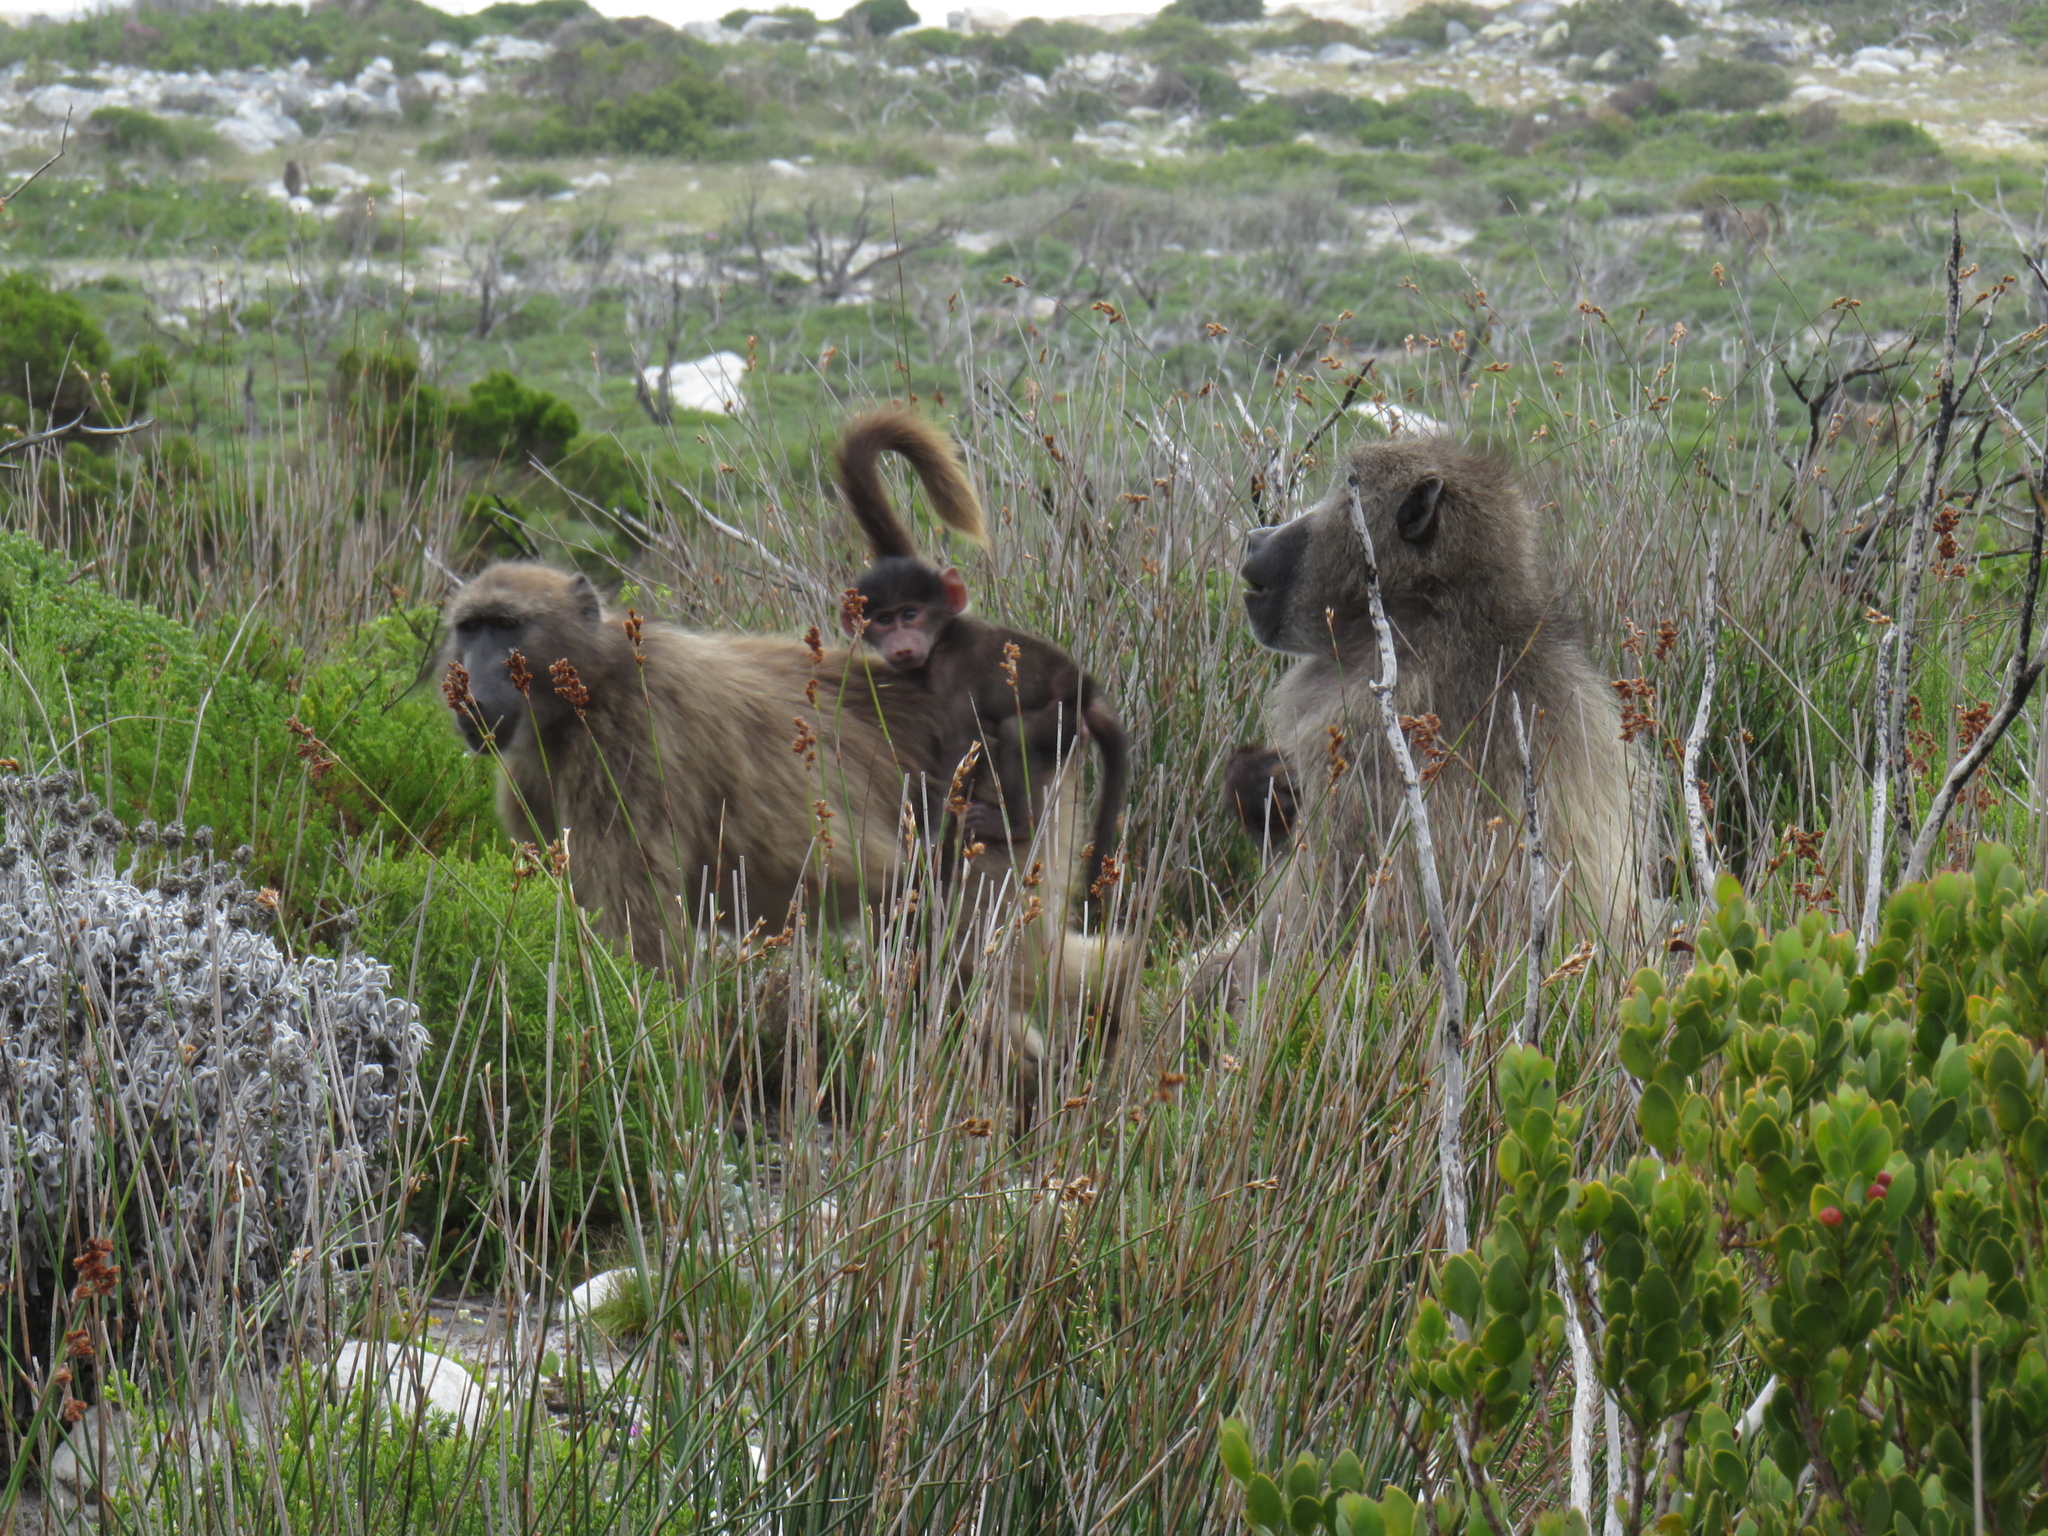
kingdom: Animalia
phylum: Chordata
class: Mammalia
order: Primates
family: Cercopithecidae
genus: Papio
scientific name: Papio ursinus
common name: Chacma baboon
